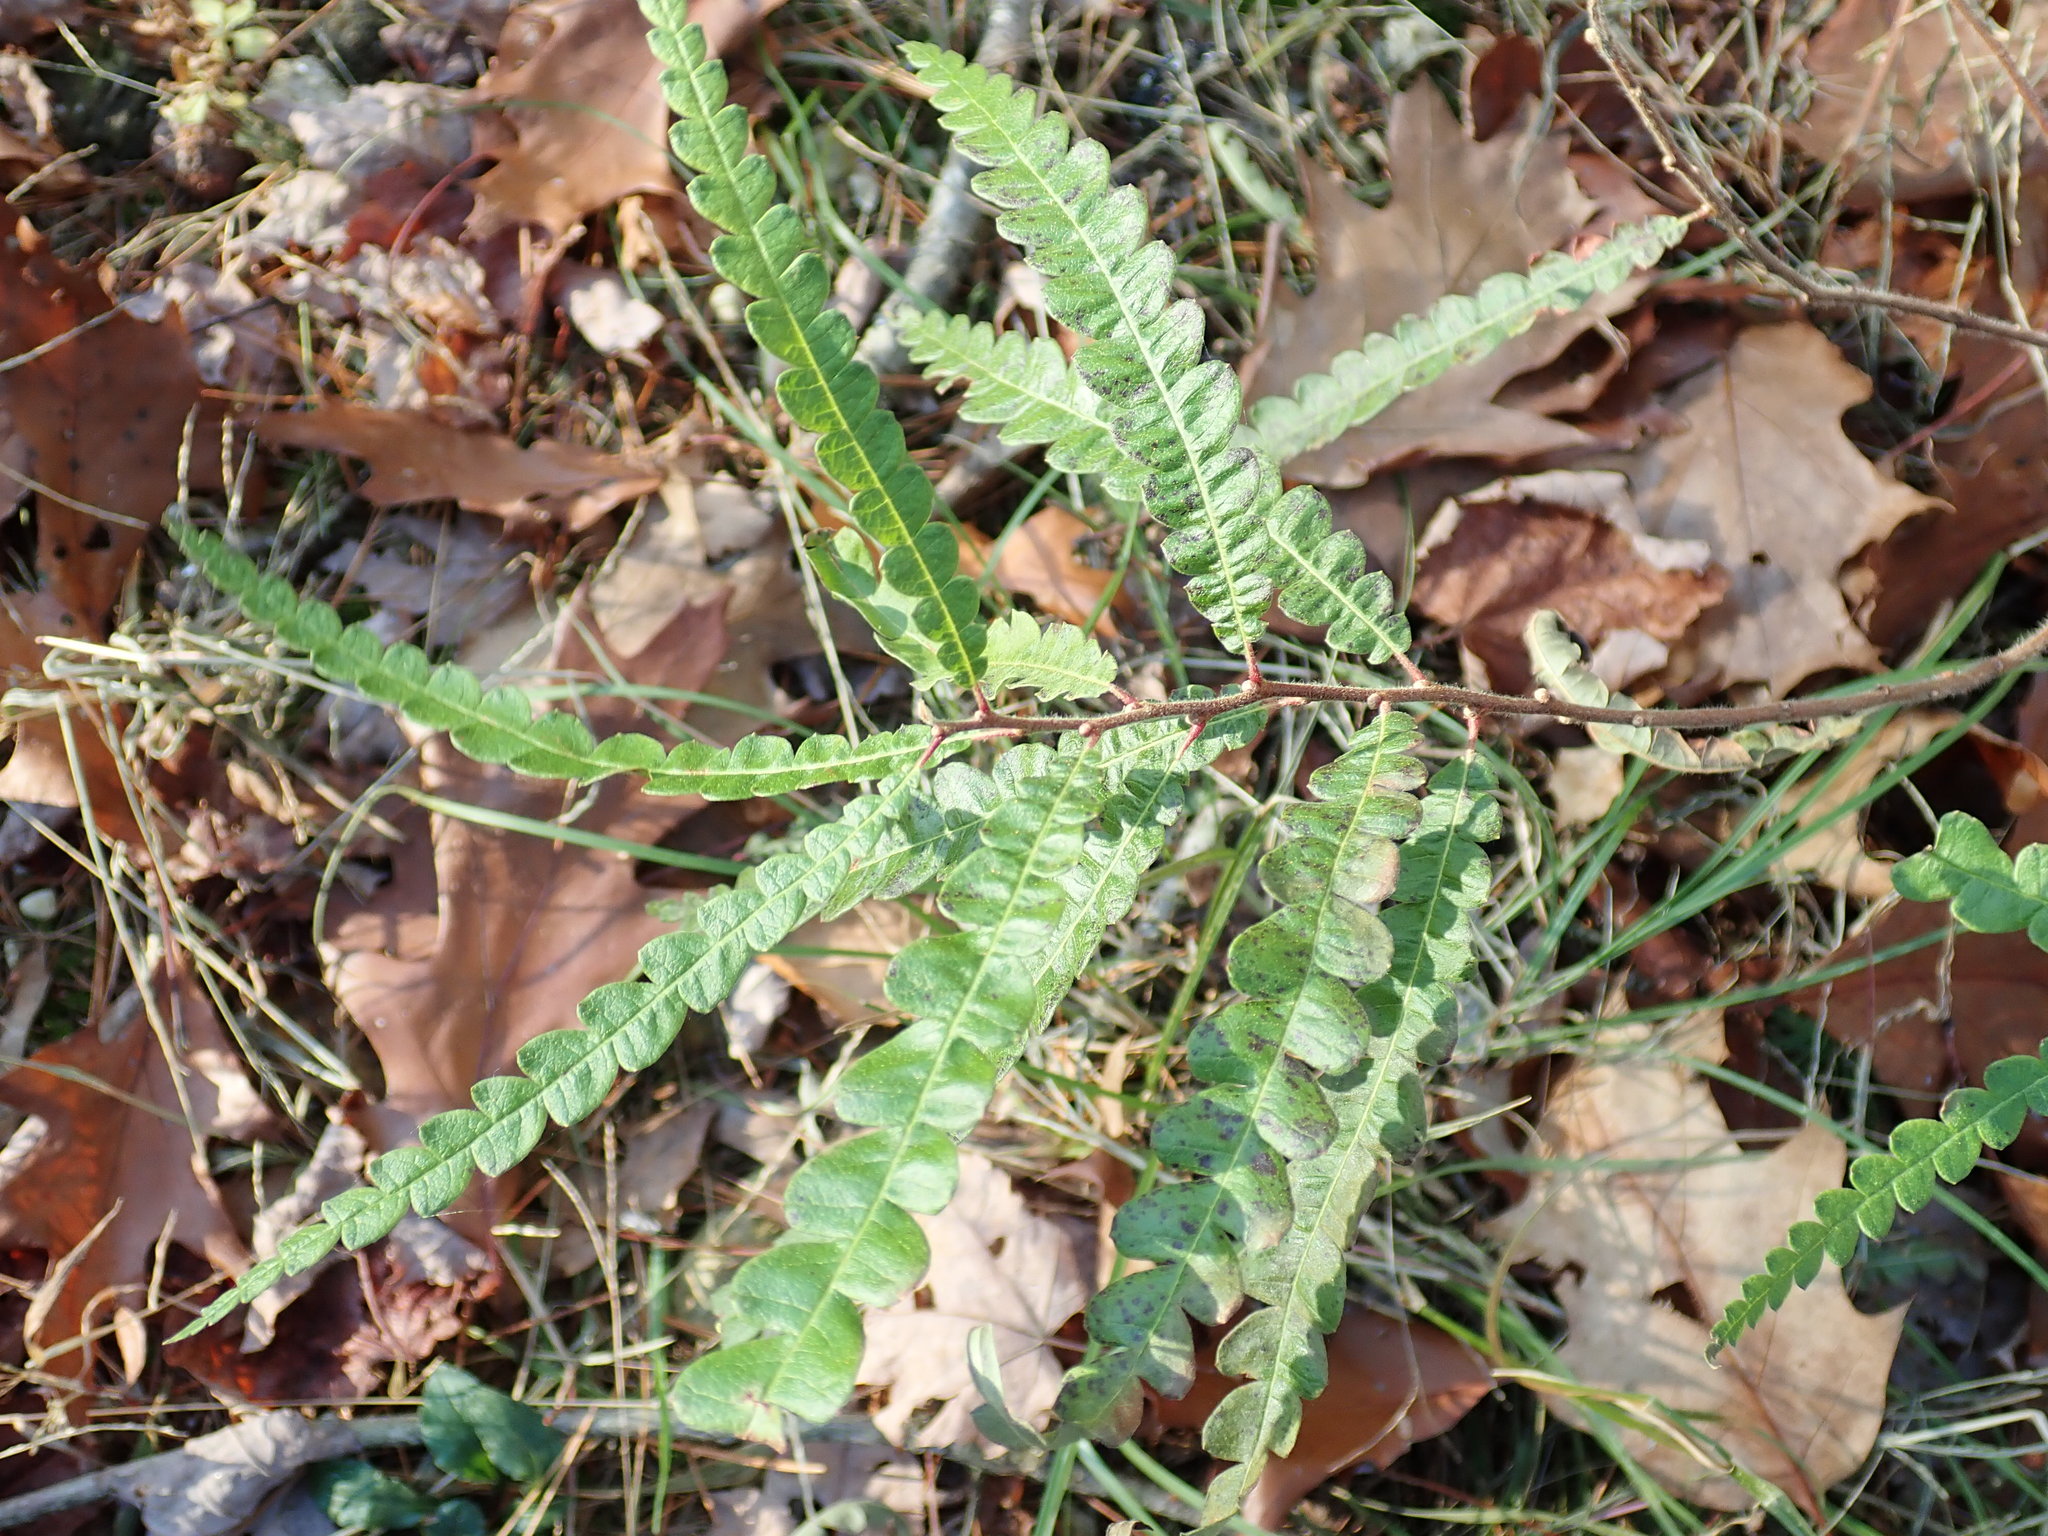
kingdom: Plantae
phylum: Tracheophyta
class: Magnoliopsida
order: Fagales
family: Myricaceae
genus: Comptonia
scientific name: Comptonia peregrina
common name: Sweet-fern
